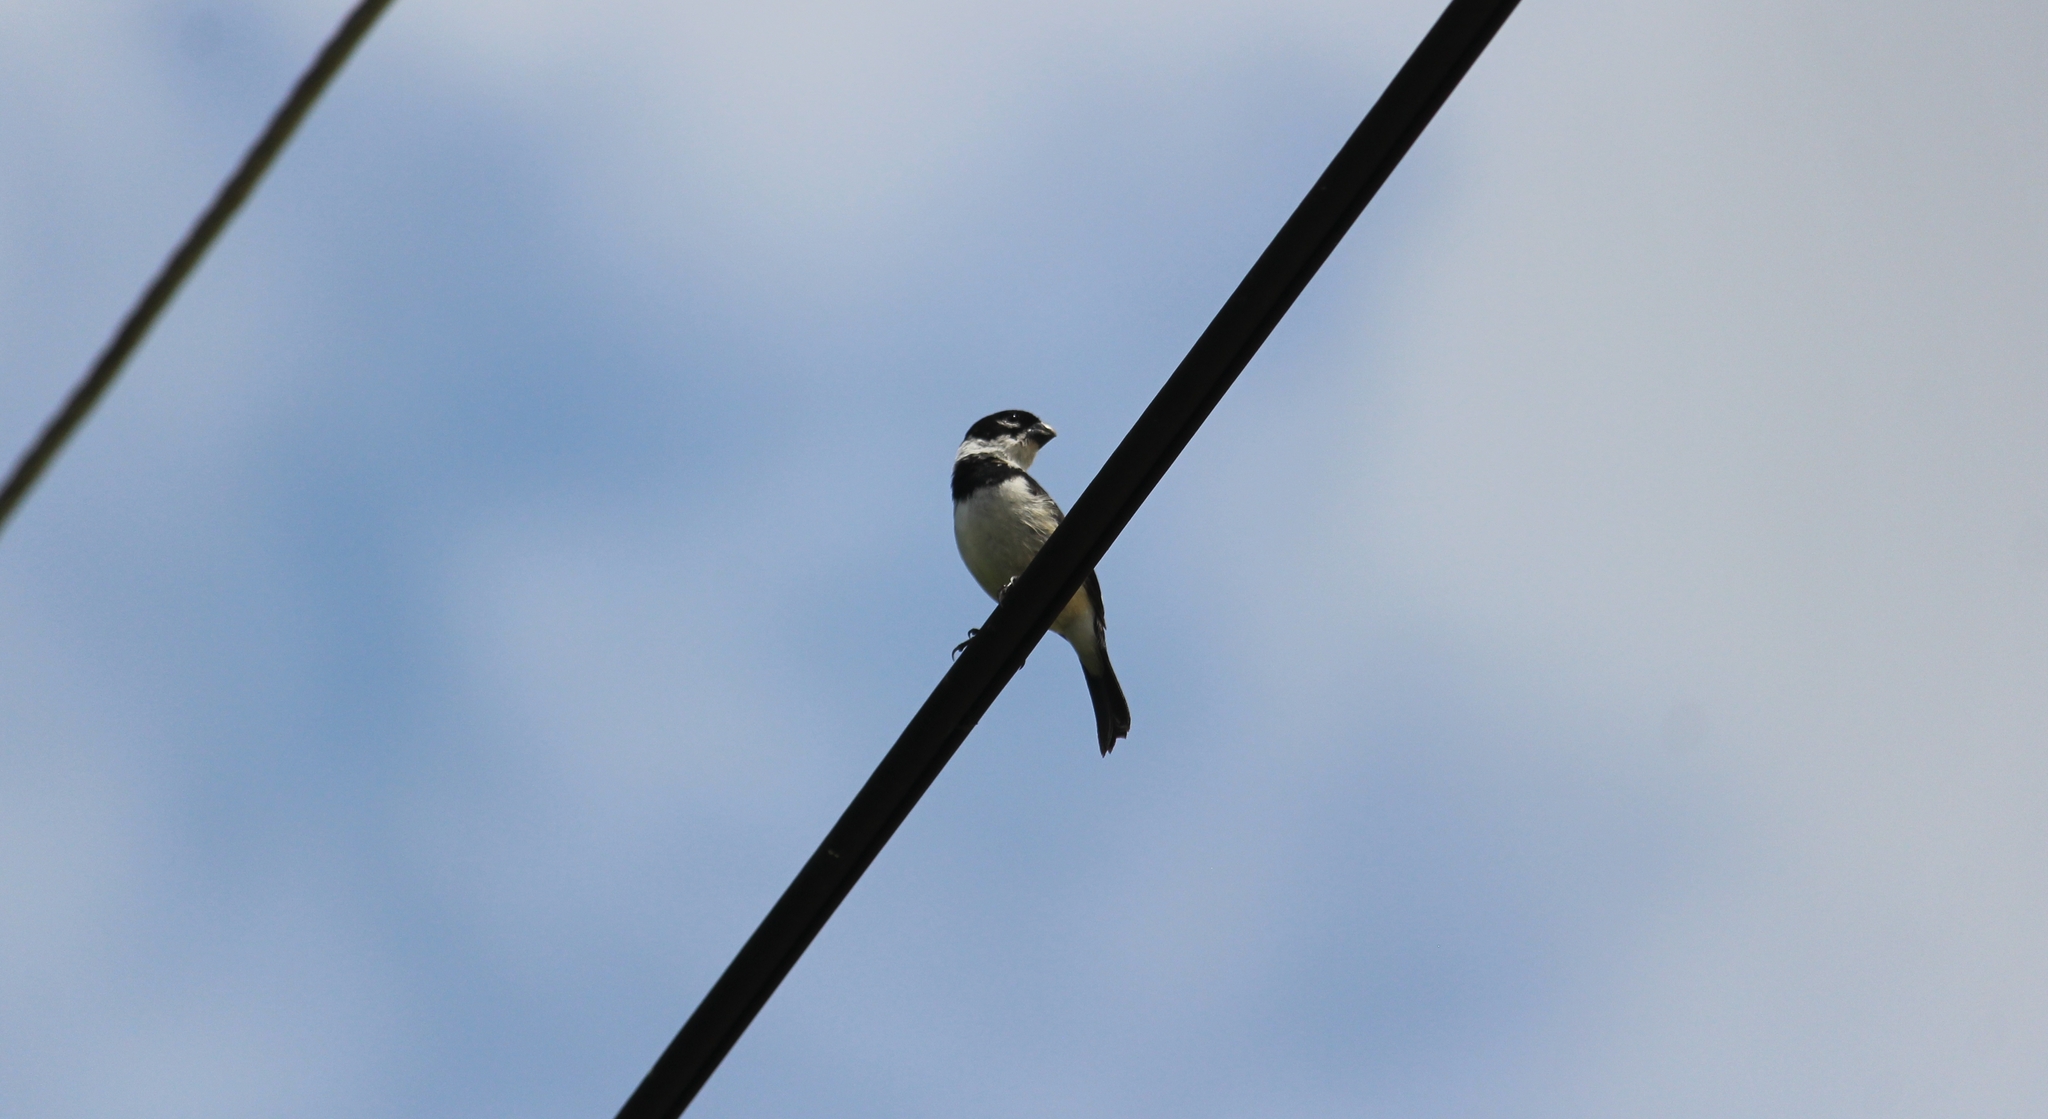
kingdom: Animalia
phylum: Chordata
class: Aves
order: Passeriformes
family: Thraupidae
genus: Sporophila
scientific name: Sporophila morelleti
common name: Morelet's seedeater
